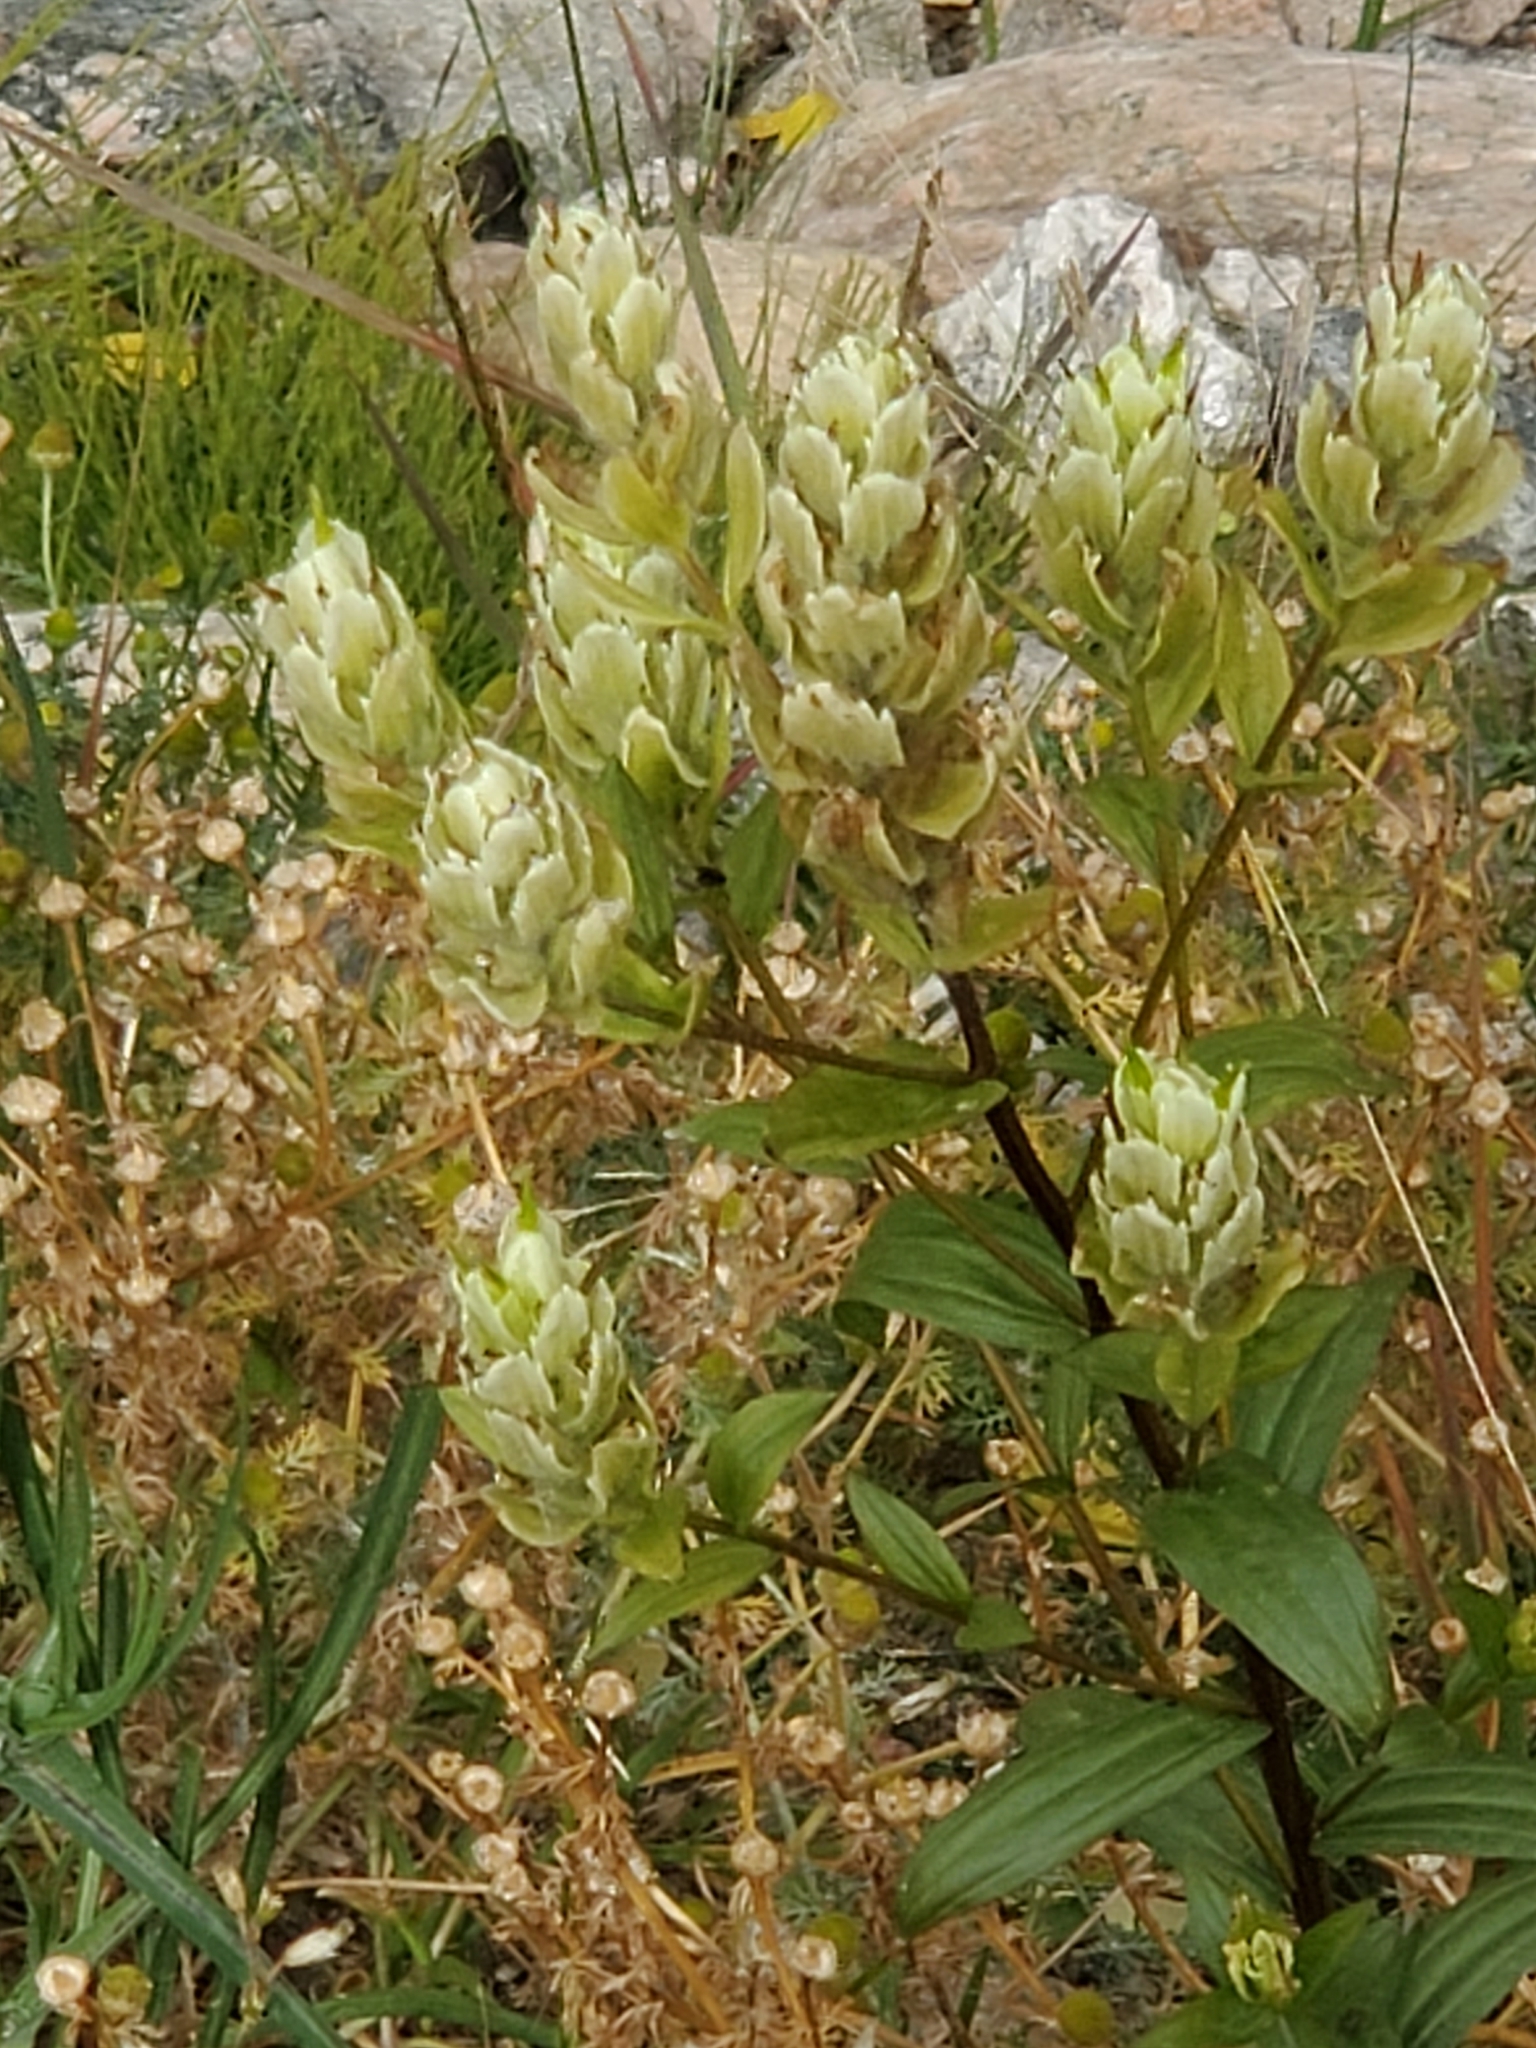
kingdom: Plantae
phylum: Tracheophyta
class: Magnoliopsida
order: Lamiales
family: Orobanchaceae
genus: Castilleja
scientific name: Castilleja septentrionalis
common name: Northeastern paintbrush
